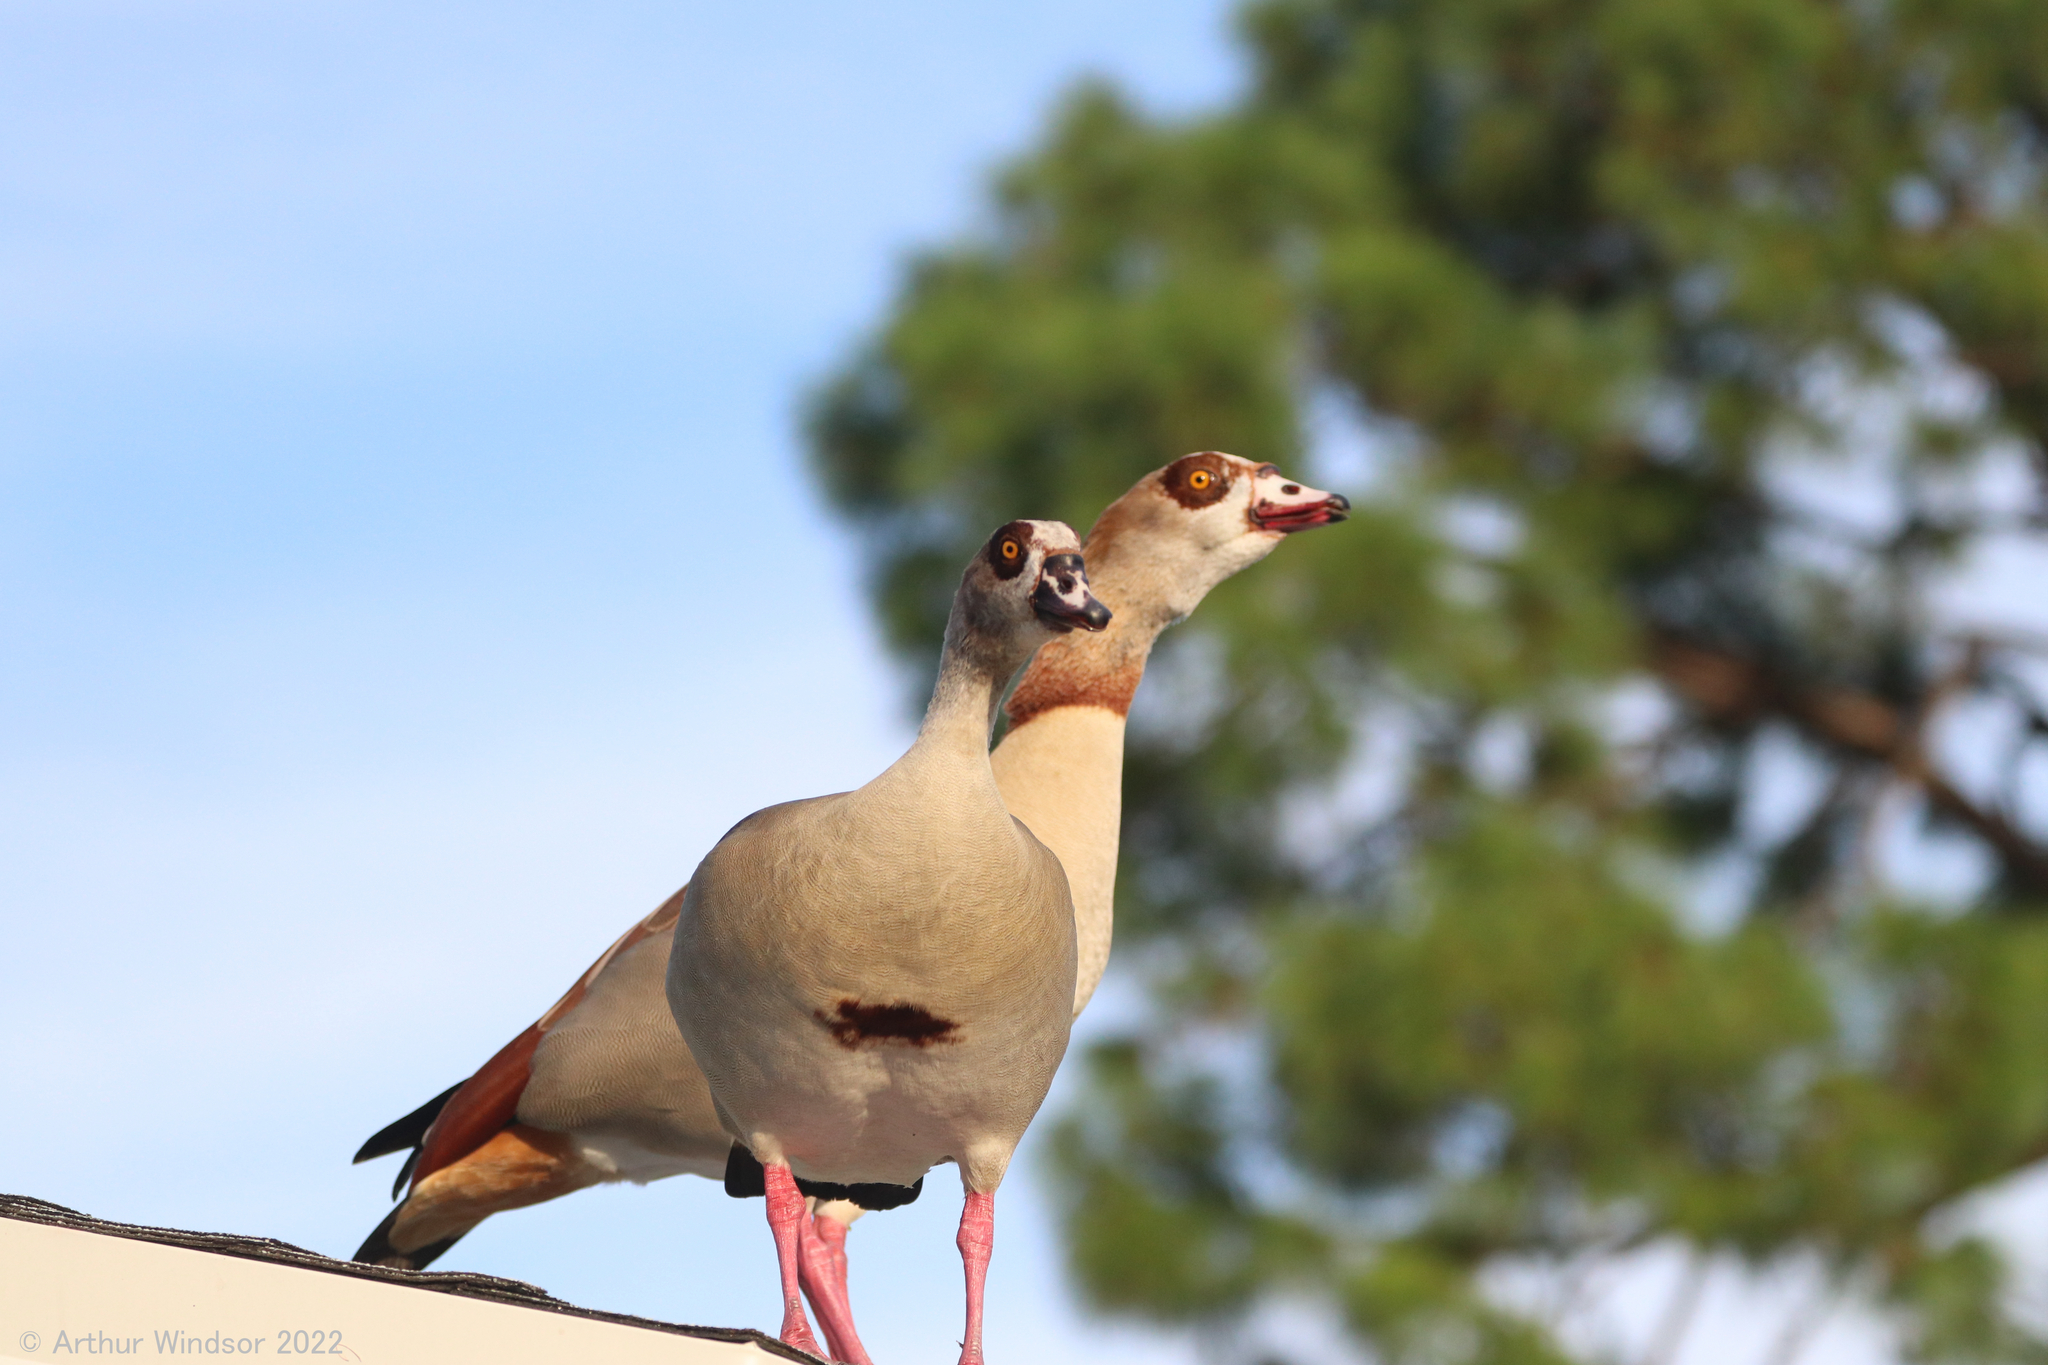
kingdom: Animalia
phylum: Chordata
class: Aves
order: Anseriformes
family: Anatidae
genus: Alopochen
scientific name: Alopochen aegyptiaca
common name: Egyptian goose
